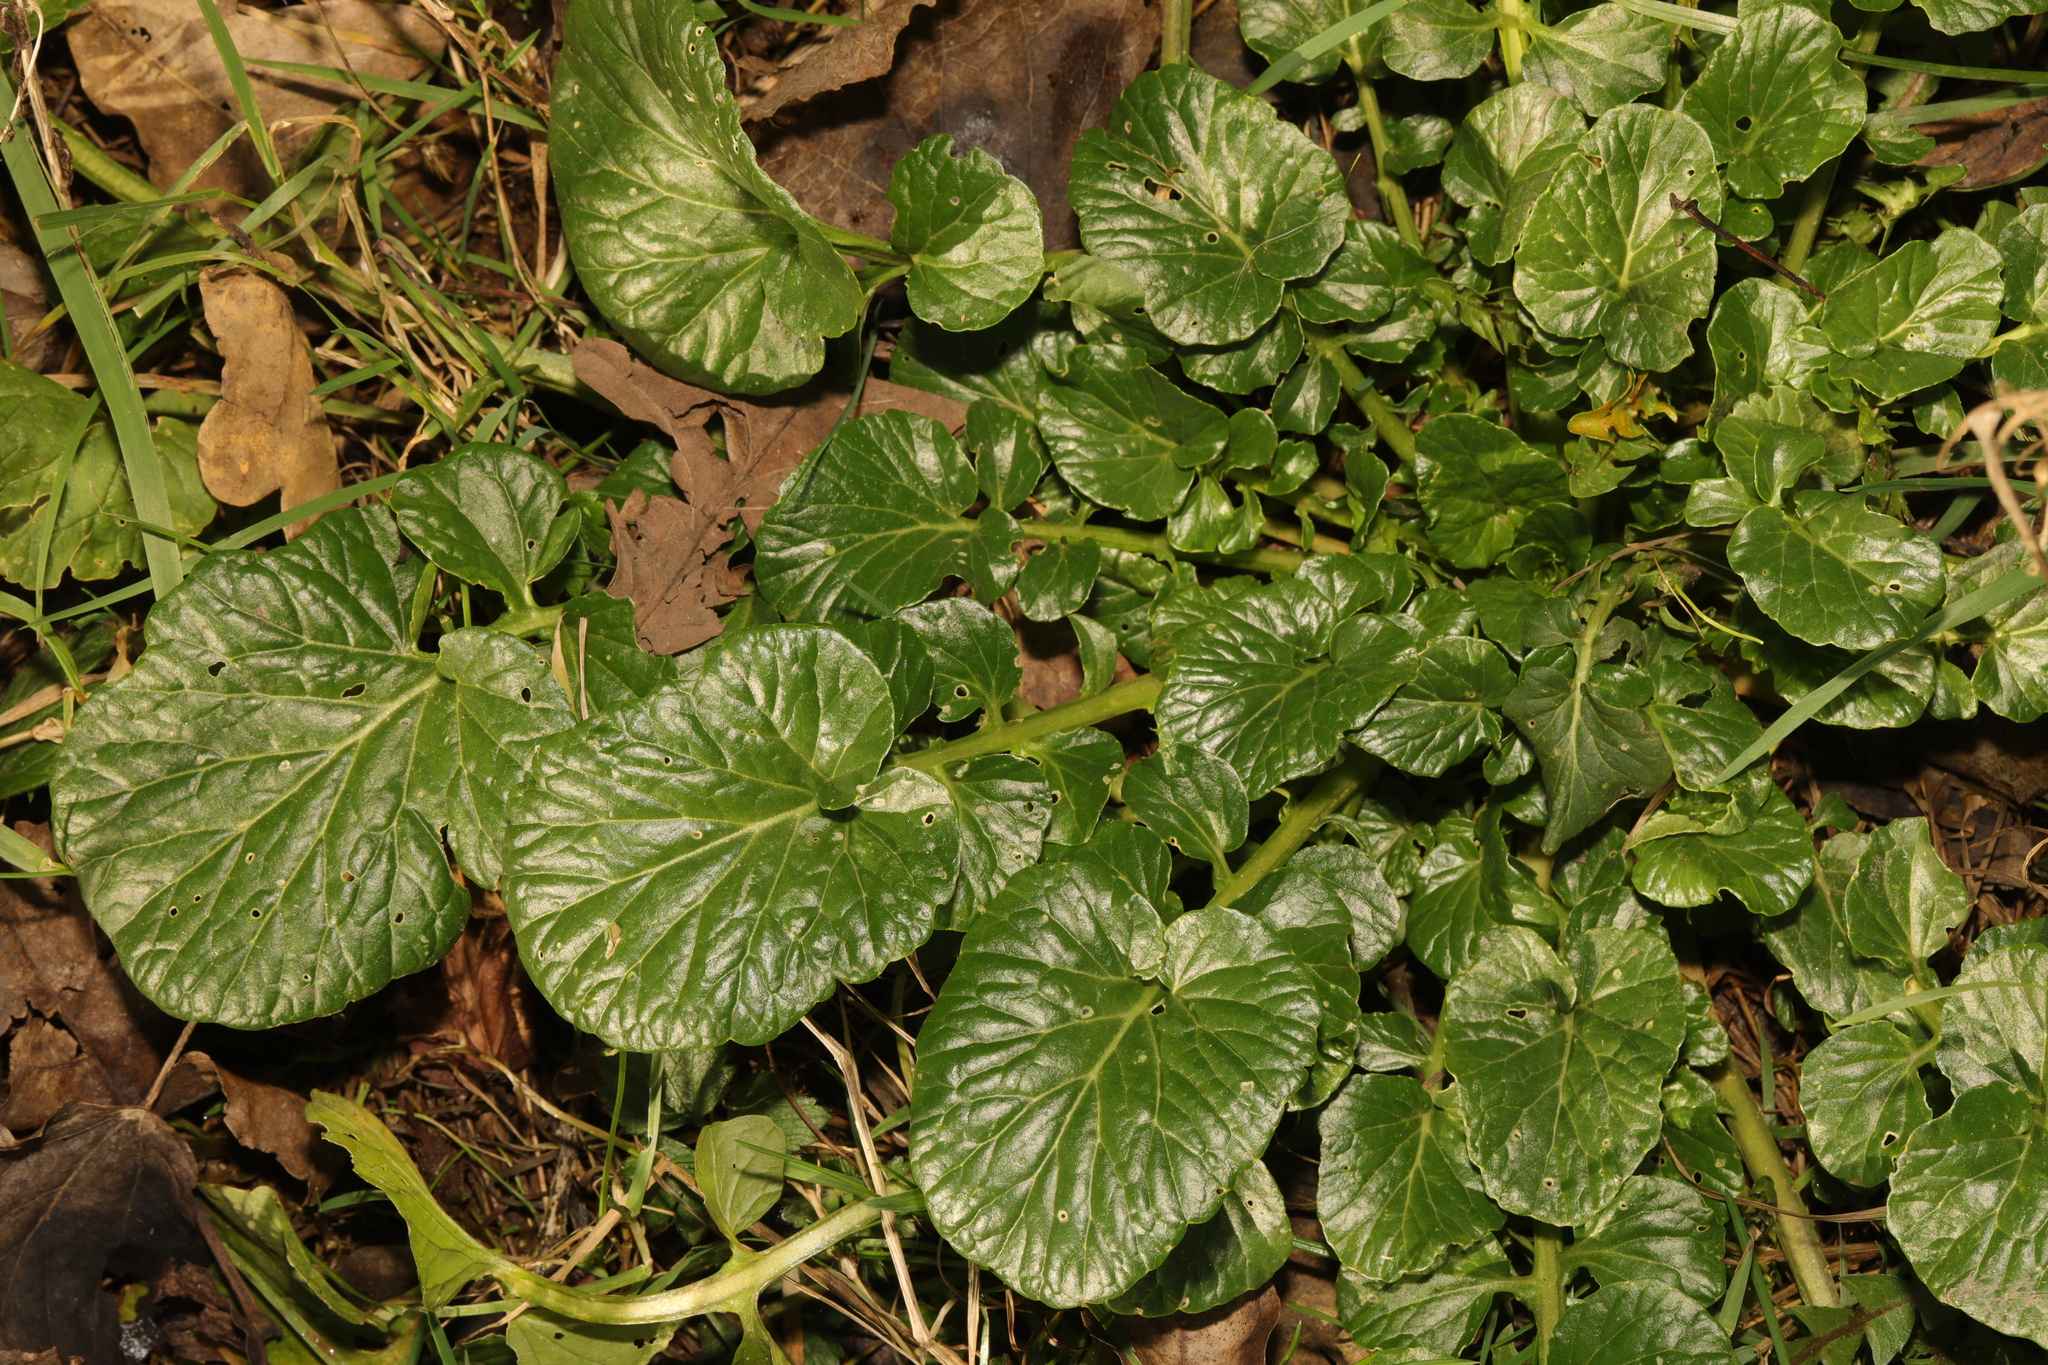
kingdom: Plantae
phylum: Tracheophyta
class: Magnoliopsida
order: Brassicales
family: Brassicaceae
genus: Barbarea
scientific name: Barbarea vulgaris
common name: Cressy-greens
